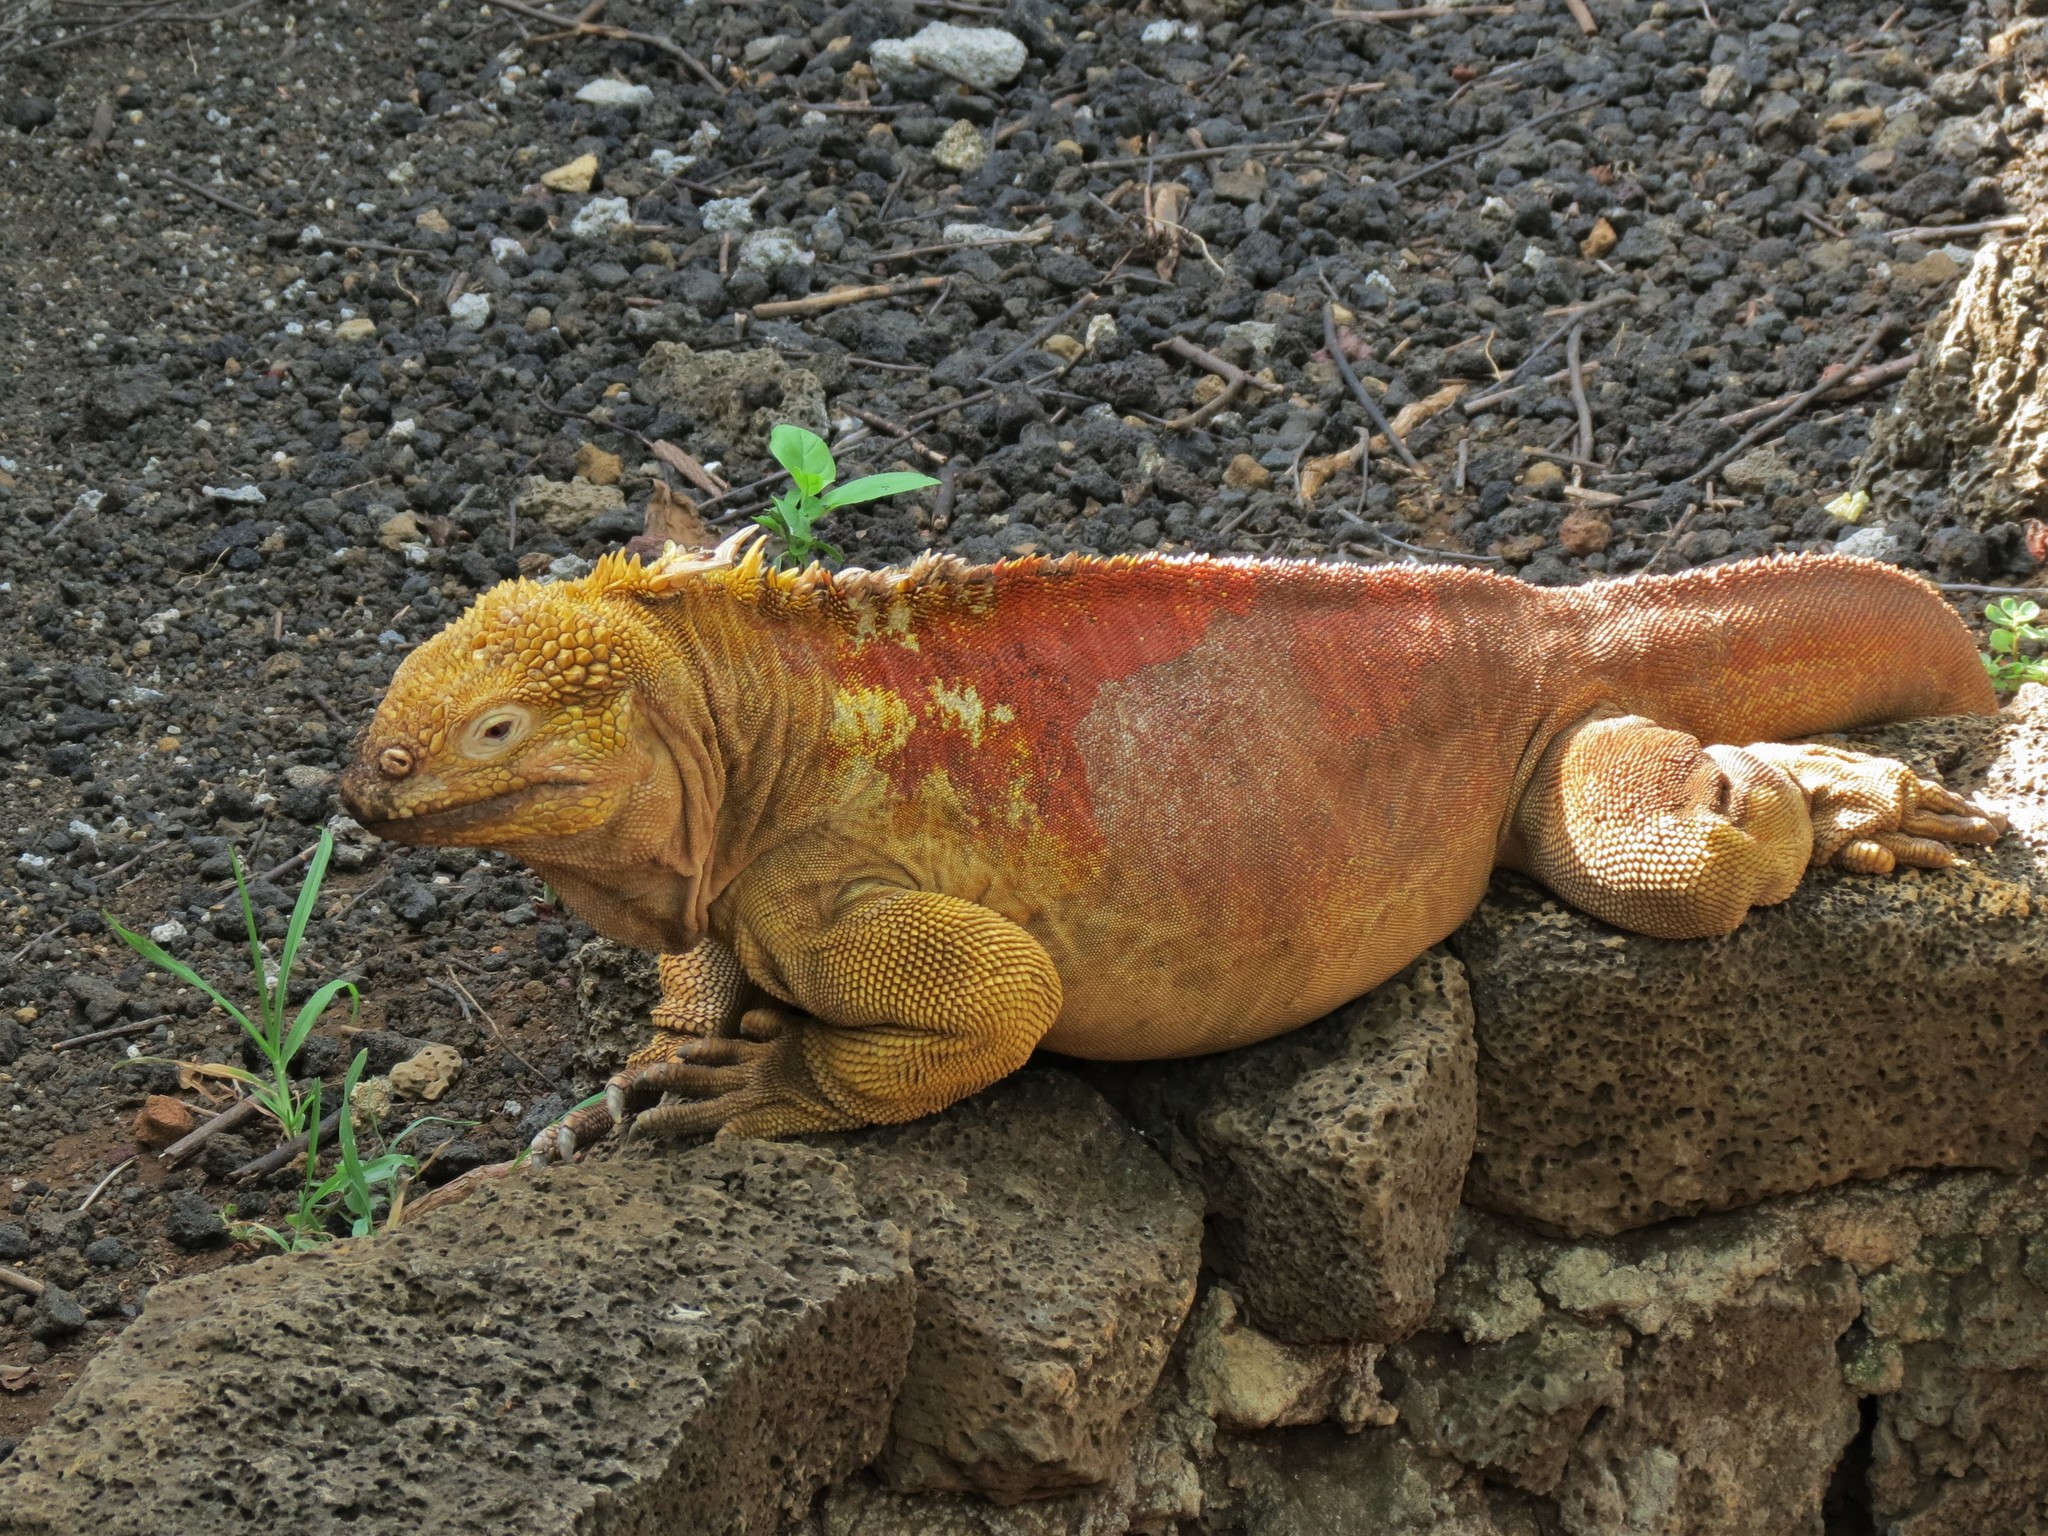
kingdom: Animalia
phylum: Chordata
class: Squamata
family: Iguanidae
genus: Conolophus
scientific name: Conolophus subcristatus
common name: Galapagos land iguana
